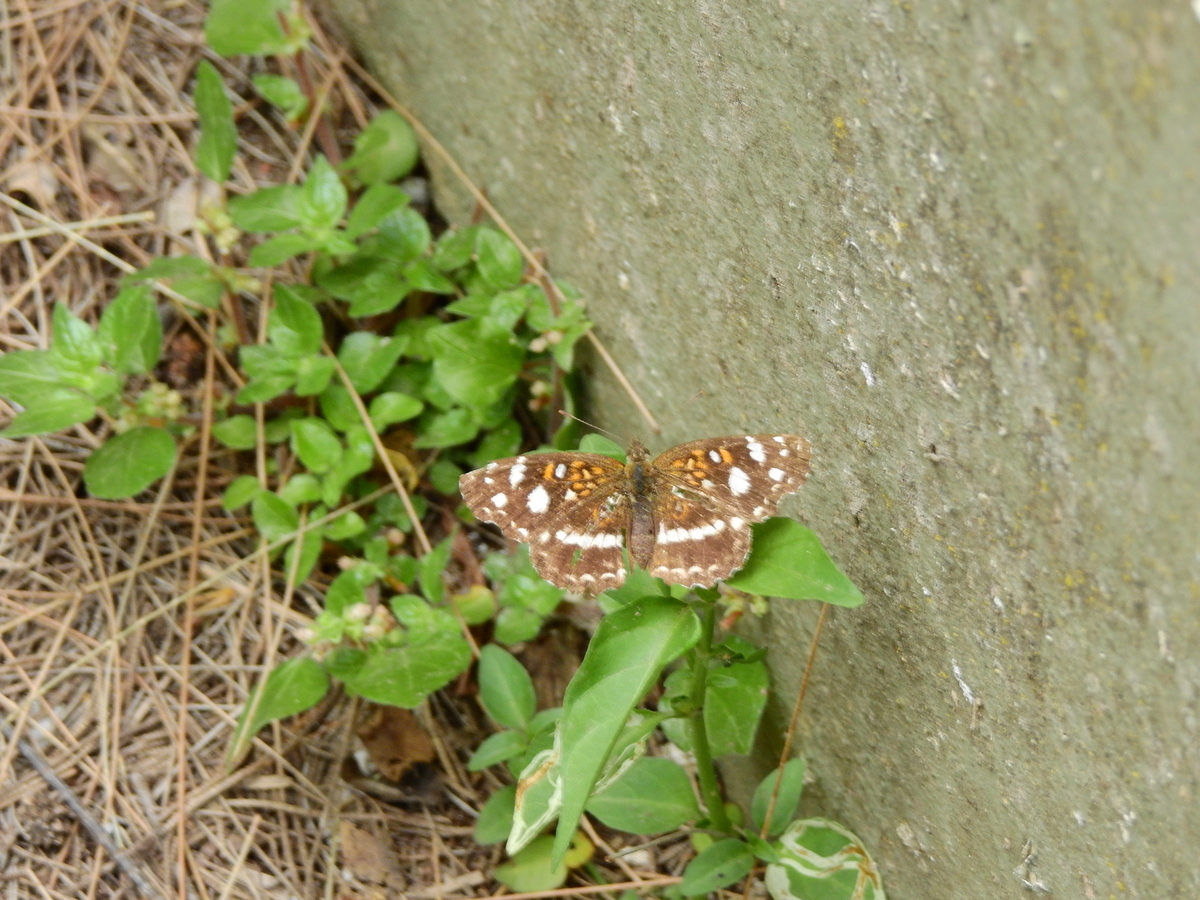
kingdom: Animalia
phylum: Arthropoda
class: Insecta
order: Lepidoptera
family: Nymphalidae
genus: Ortilia
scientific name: Ortilia ithra
